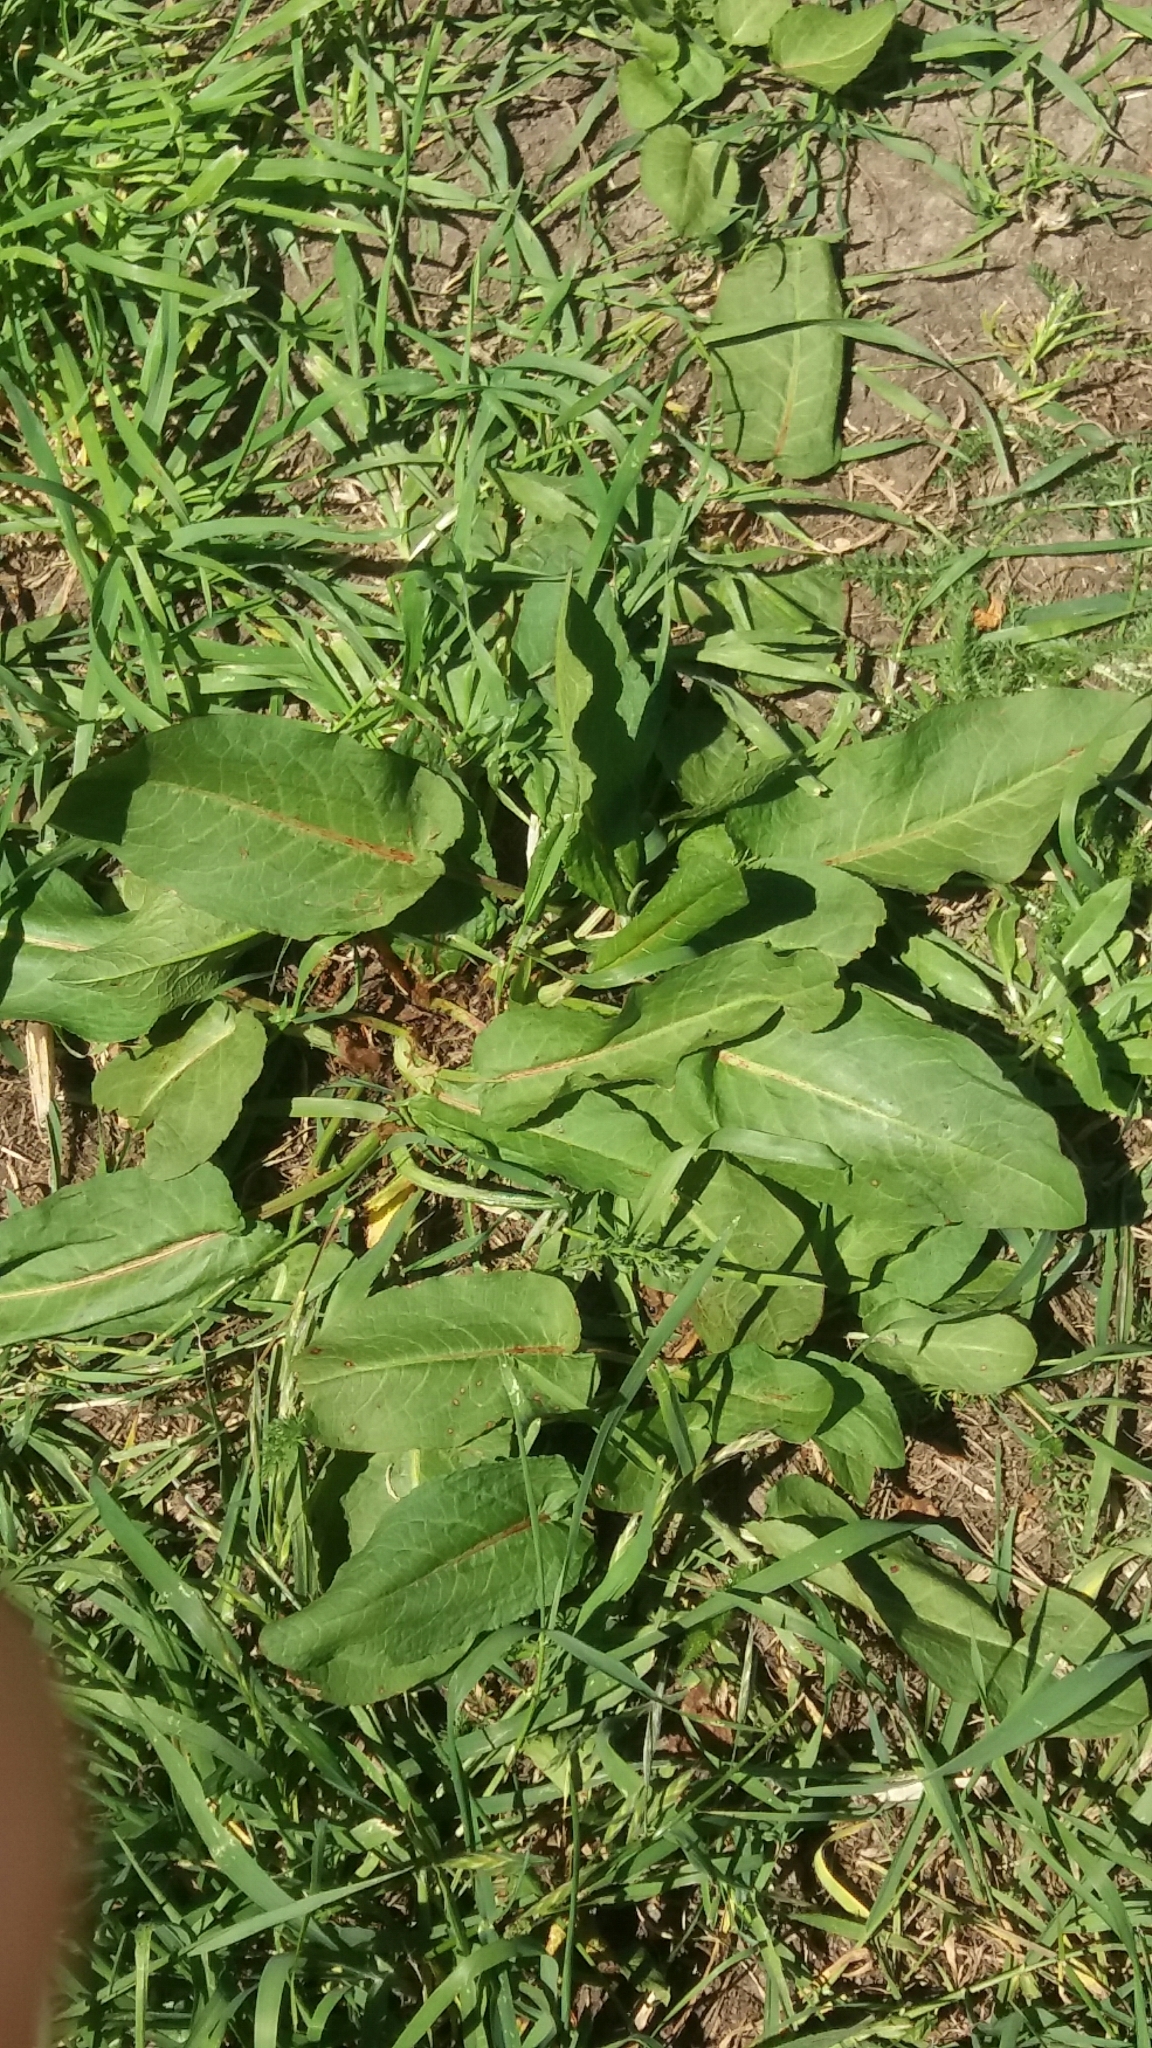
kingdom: Plantae
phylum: Tracheophyta
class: Magnoliopsida
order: Caryophyllales
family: Polygonaceae
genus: Rumex
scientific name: Rumex obtusifolius
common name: Bitter dock
